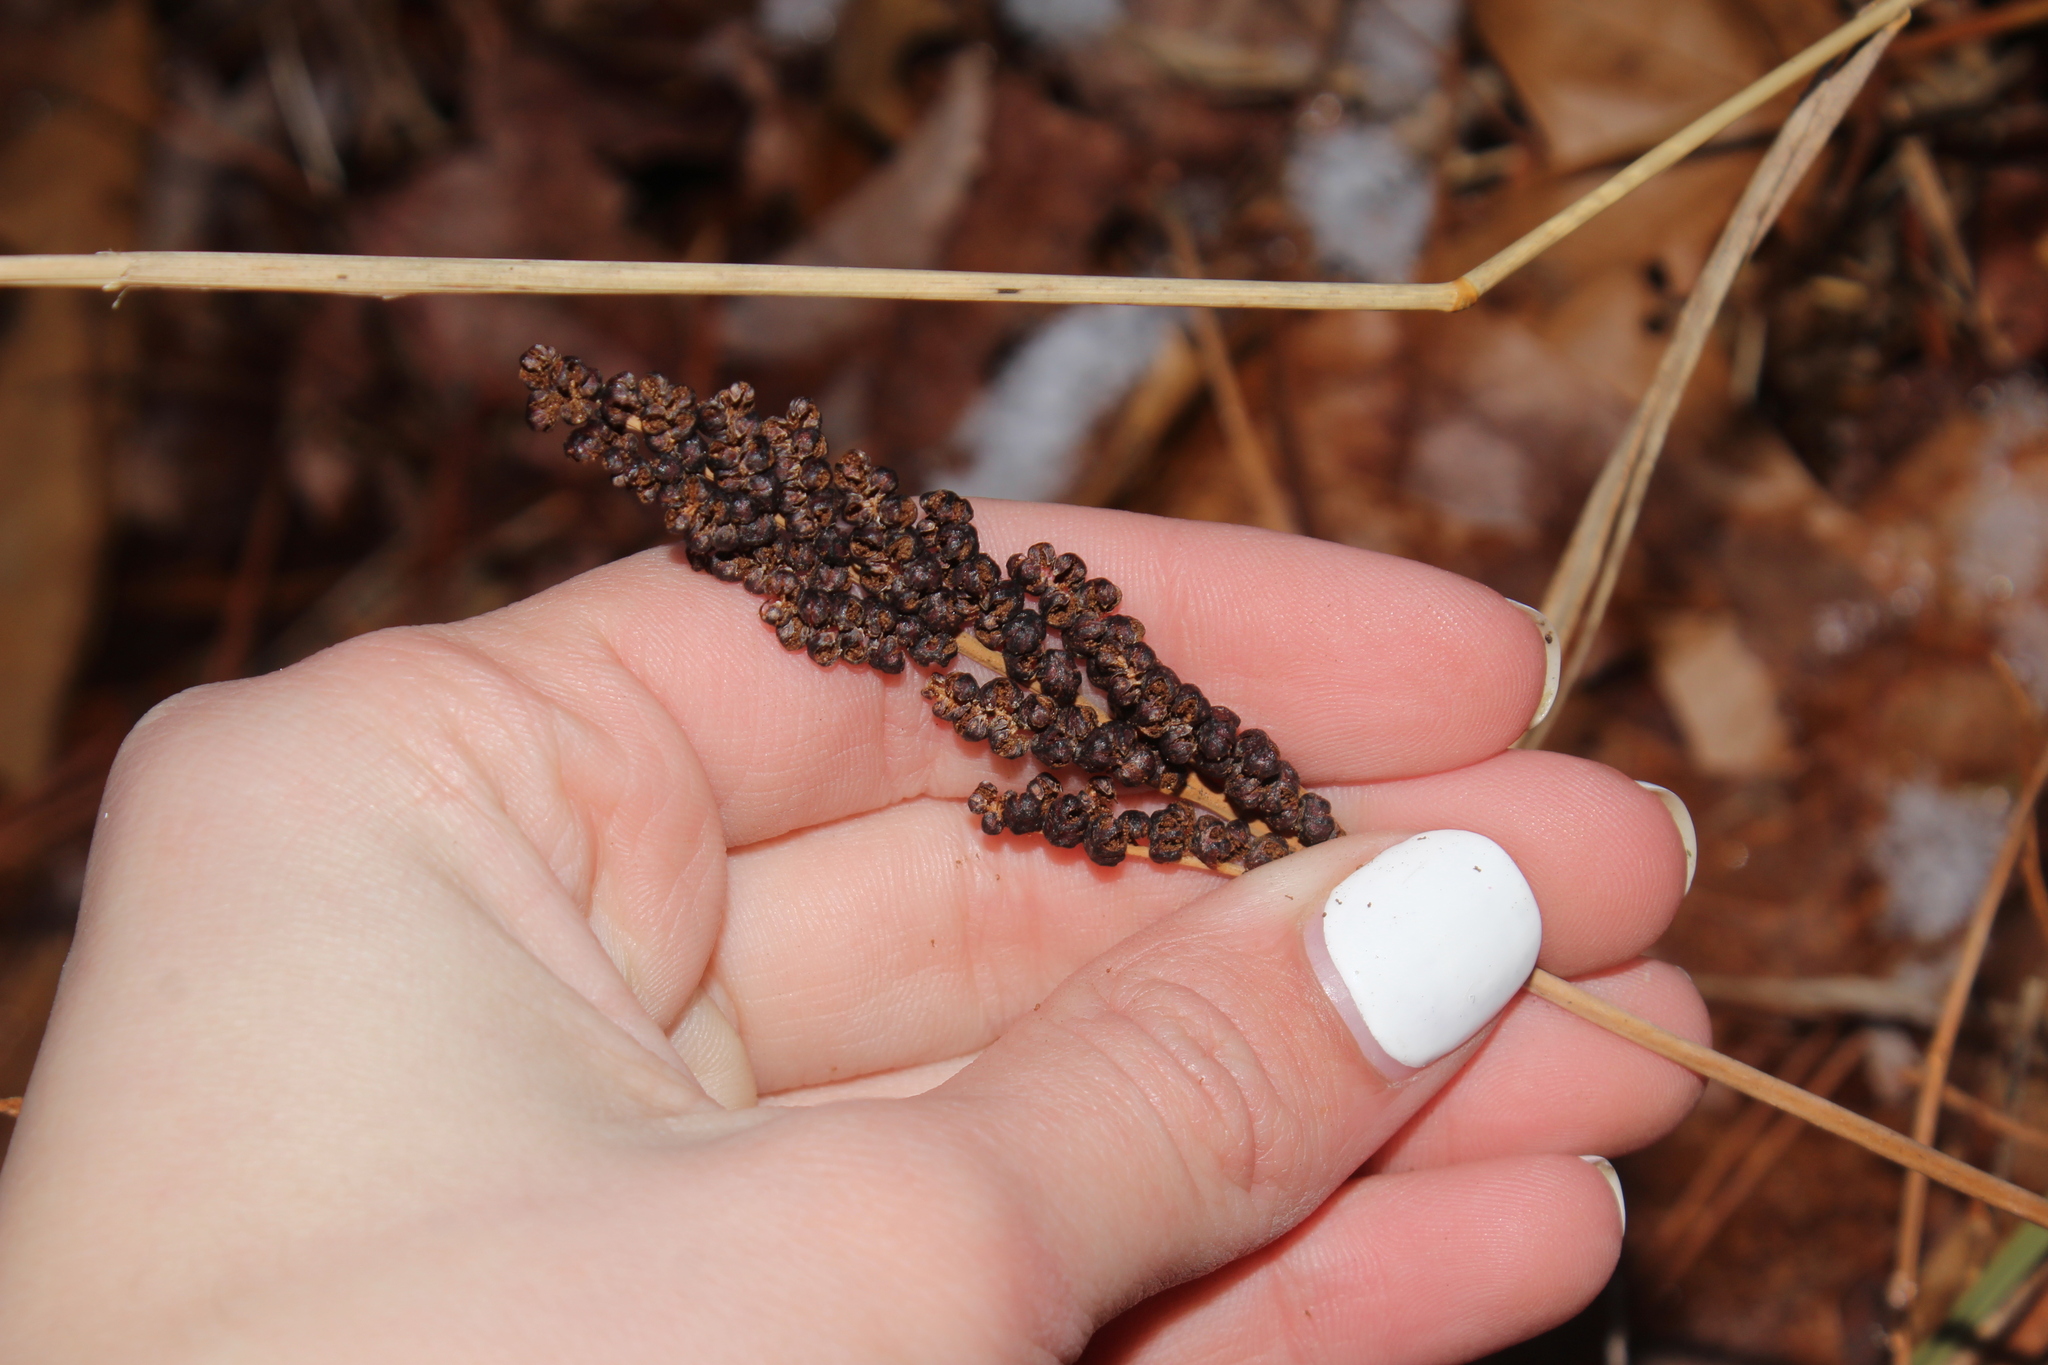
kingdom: Plantae
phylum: Tracheophyta
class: Polypodiopsida
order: Polypodiales
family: Onocleaceae
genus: Onoclea
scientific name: Onoclea sensibilis
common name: Sensitive fern
